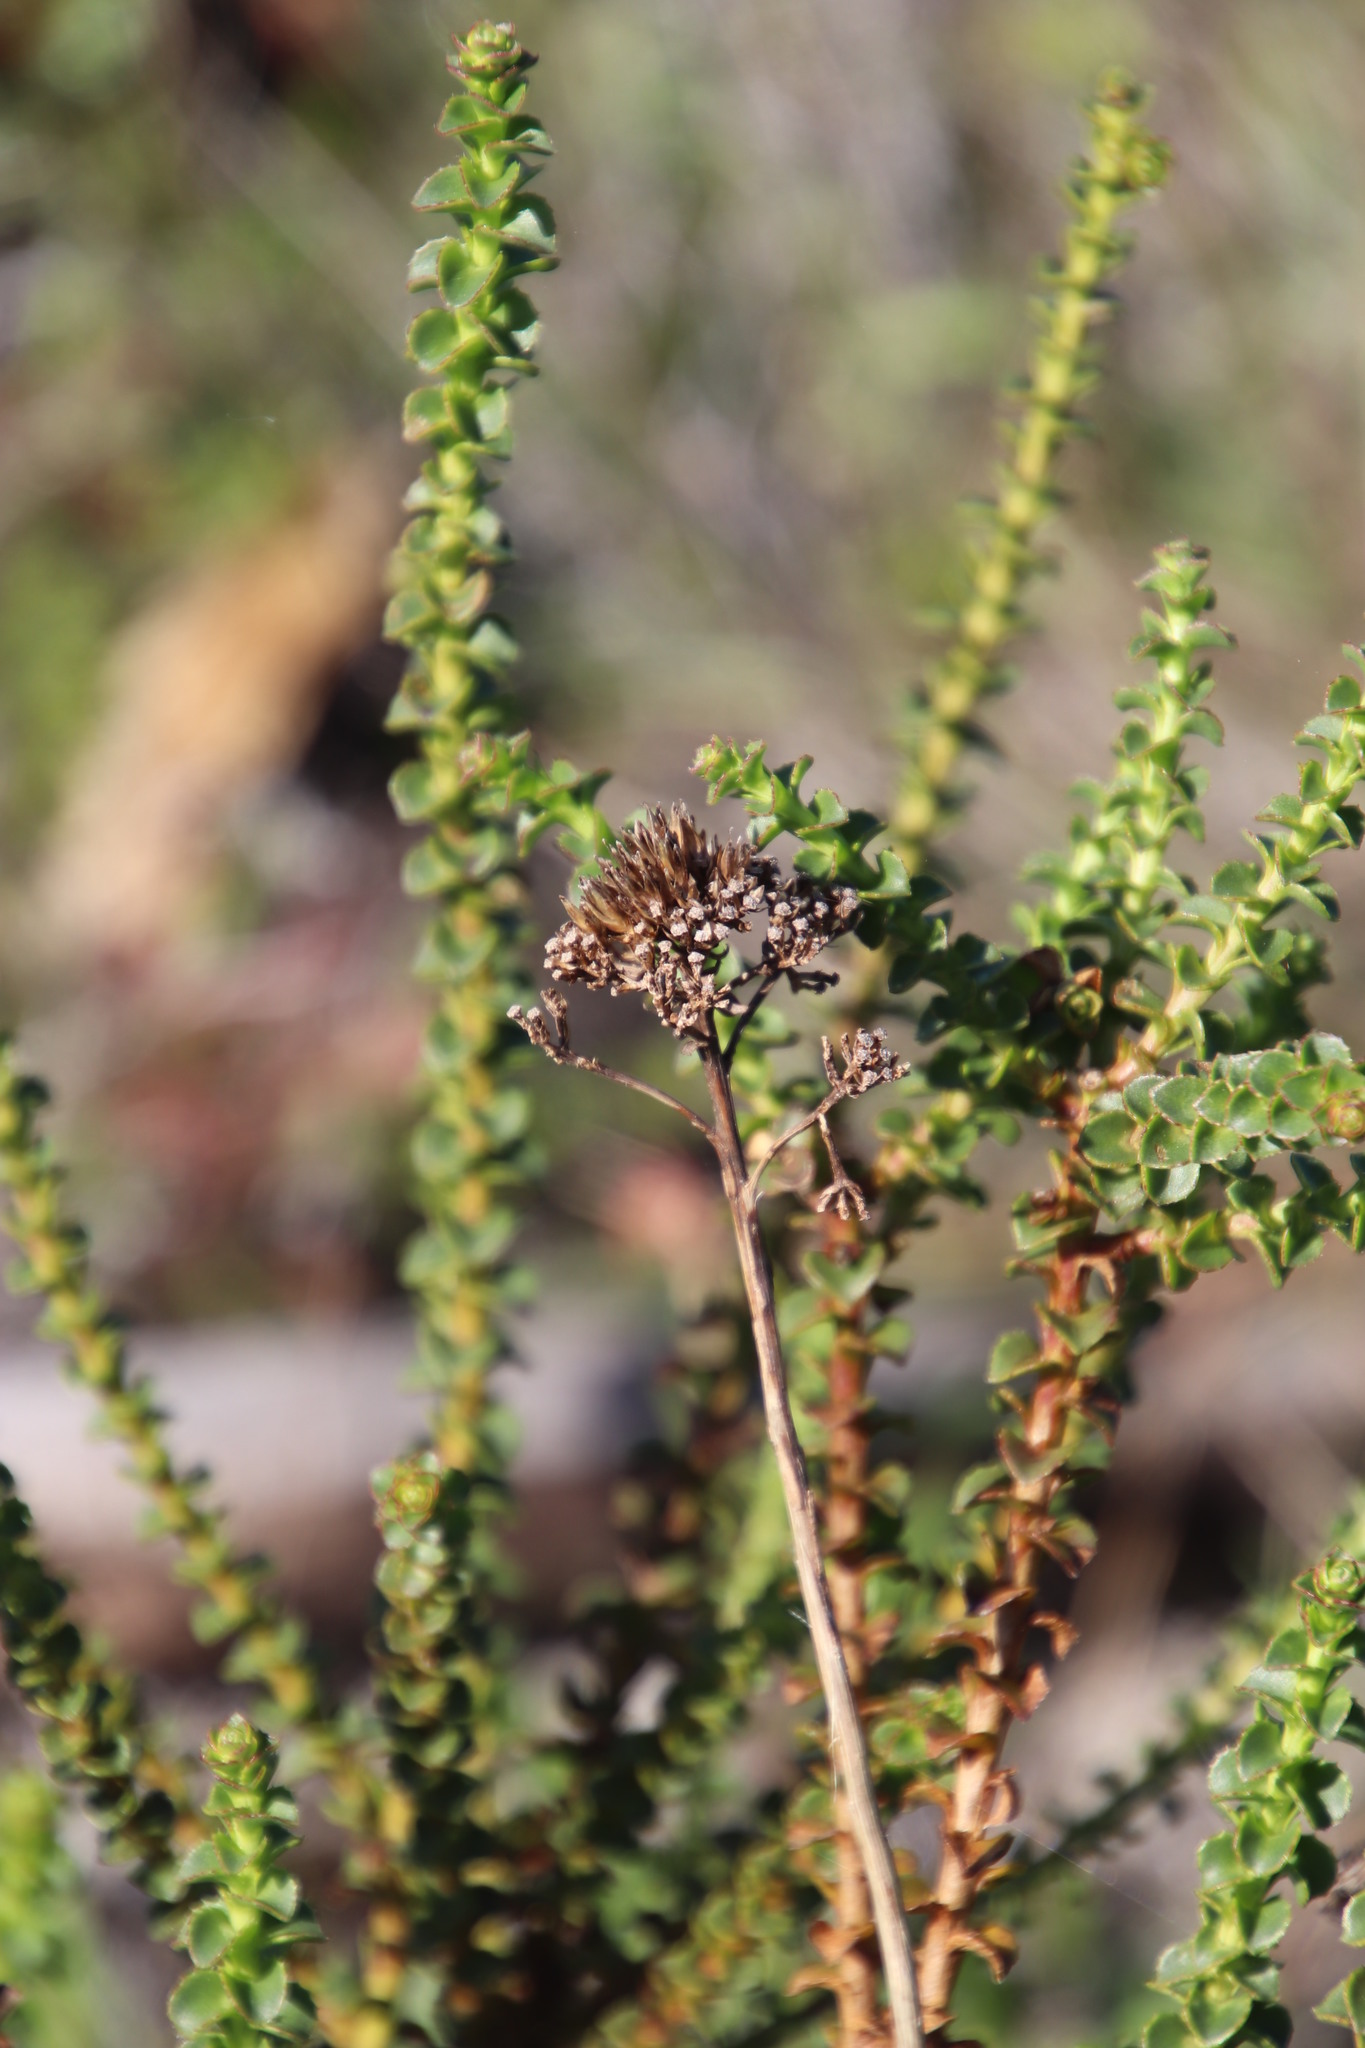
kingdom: Plantae
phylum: Tracheophyta
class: Magnoliopsida
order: Asterales
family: Asteraceae
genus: Athanasia
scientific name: Athanasia dentata
